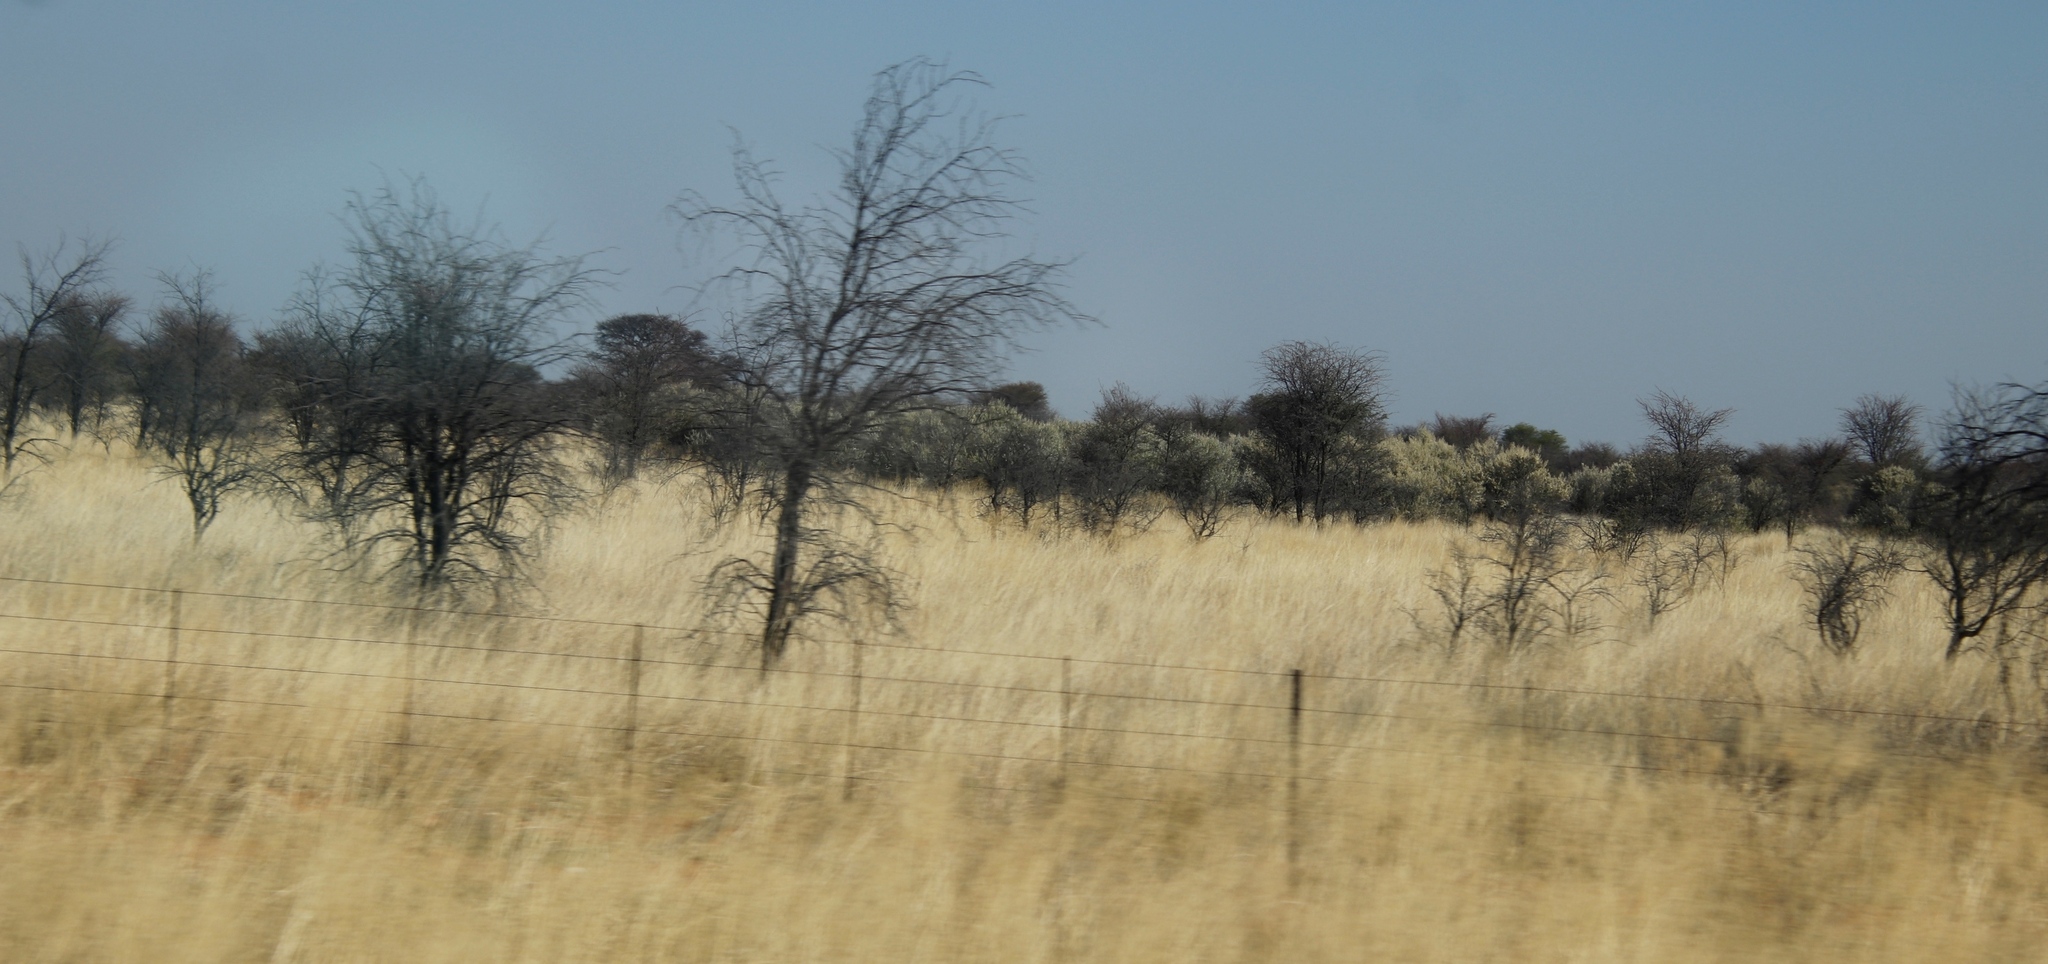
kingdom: Plantae
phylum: Tracheophyta
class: Magnoliopsida
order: Asterales
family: Asteraceae
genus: Tarchonanthus
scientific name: Tarchonanthus camphoratus
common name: Camphorwood
